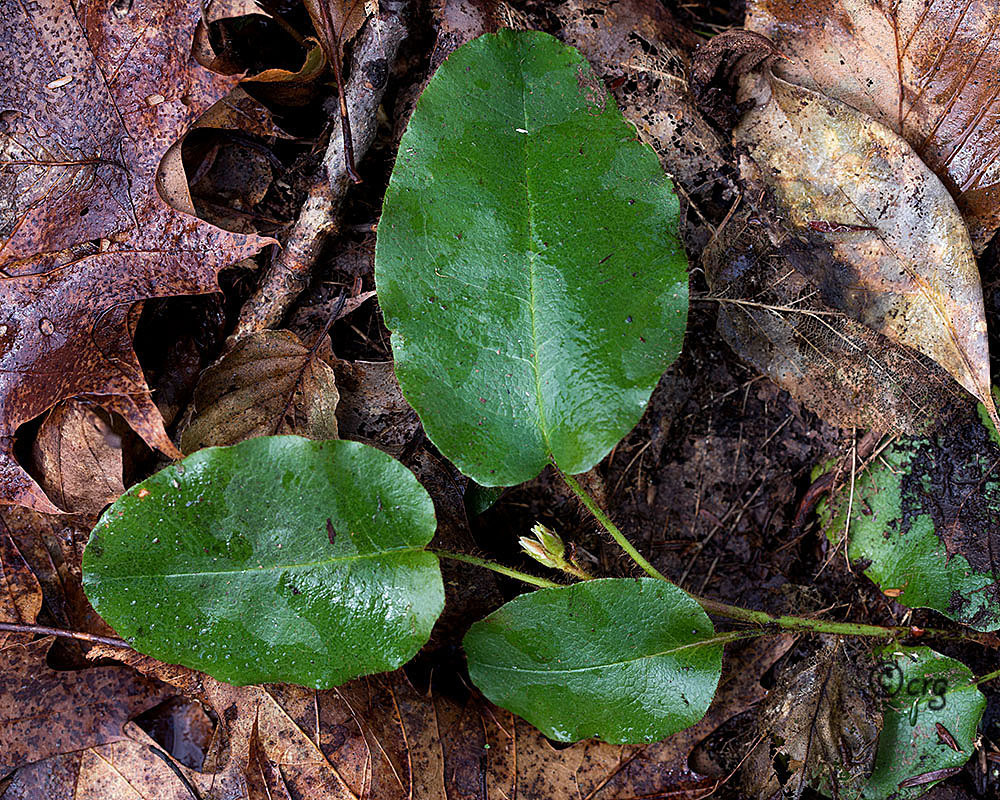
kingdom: Plantae
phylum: Tracheophyta
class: Magnoliopsida
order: Ericales
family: Ericaceae
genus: Epigaea
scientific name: Epigaea repens
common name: Gravelroot
